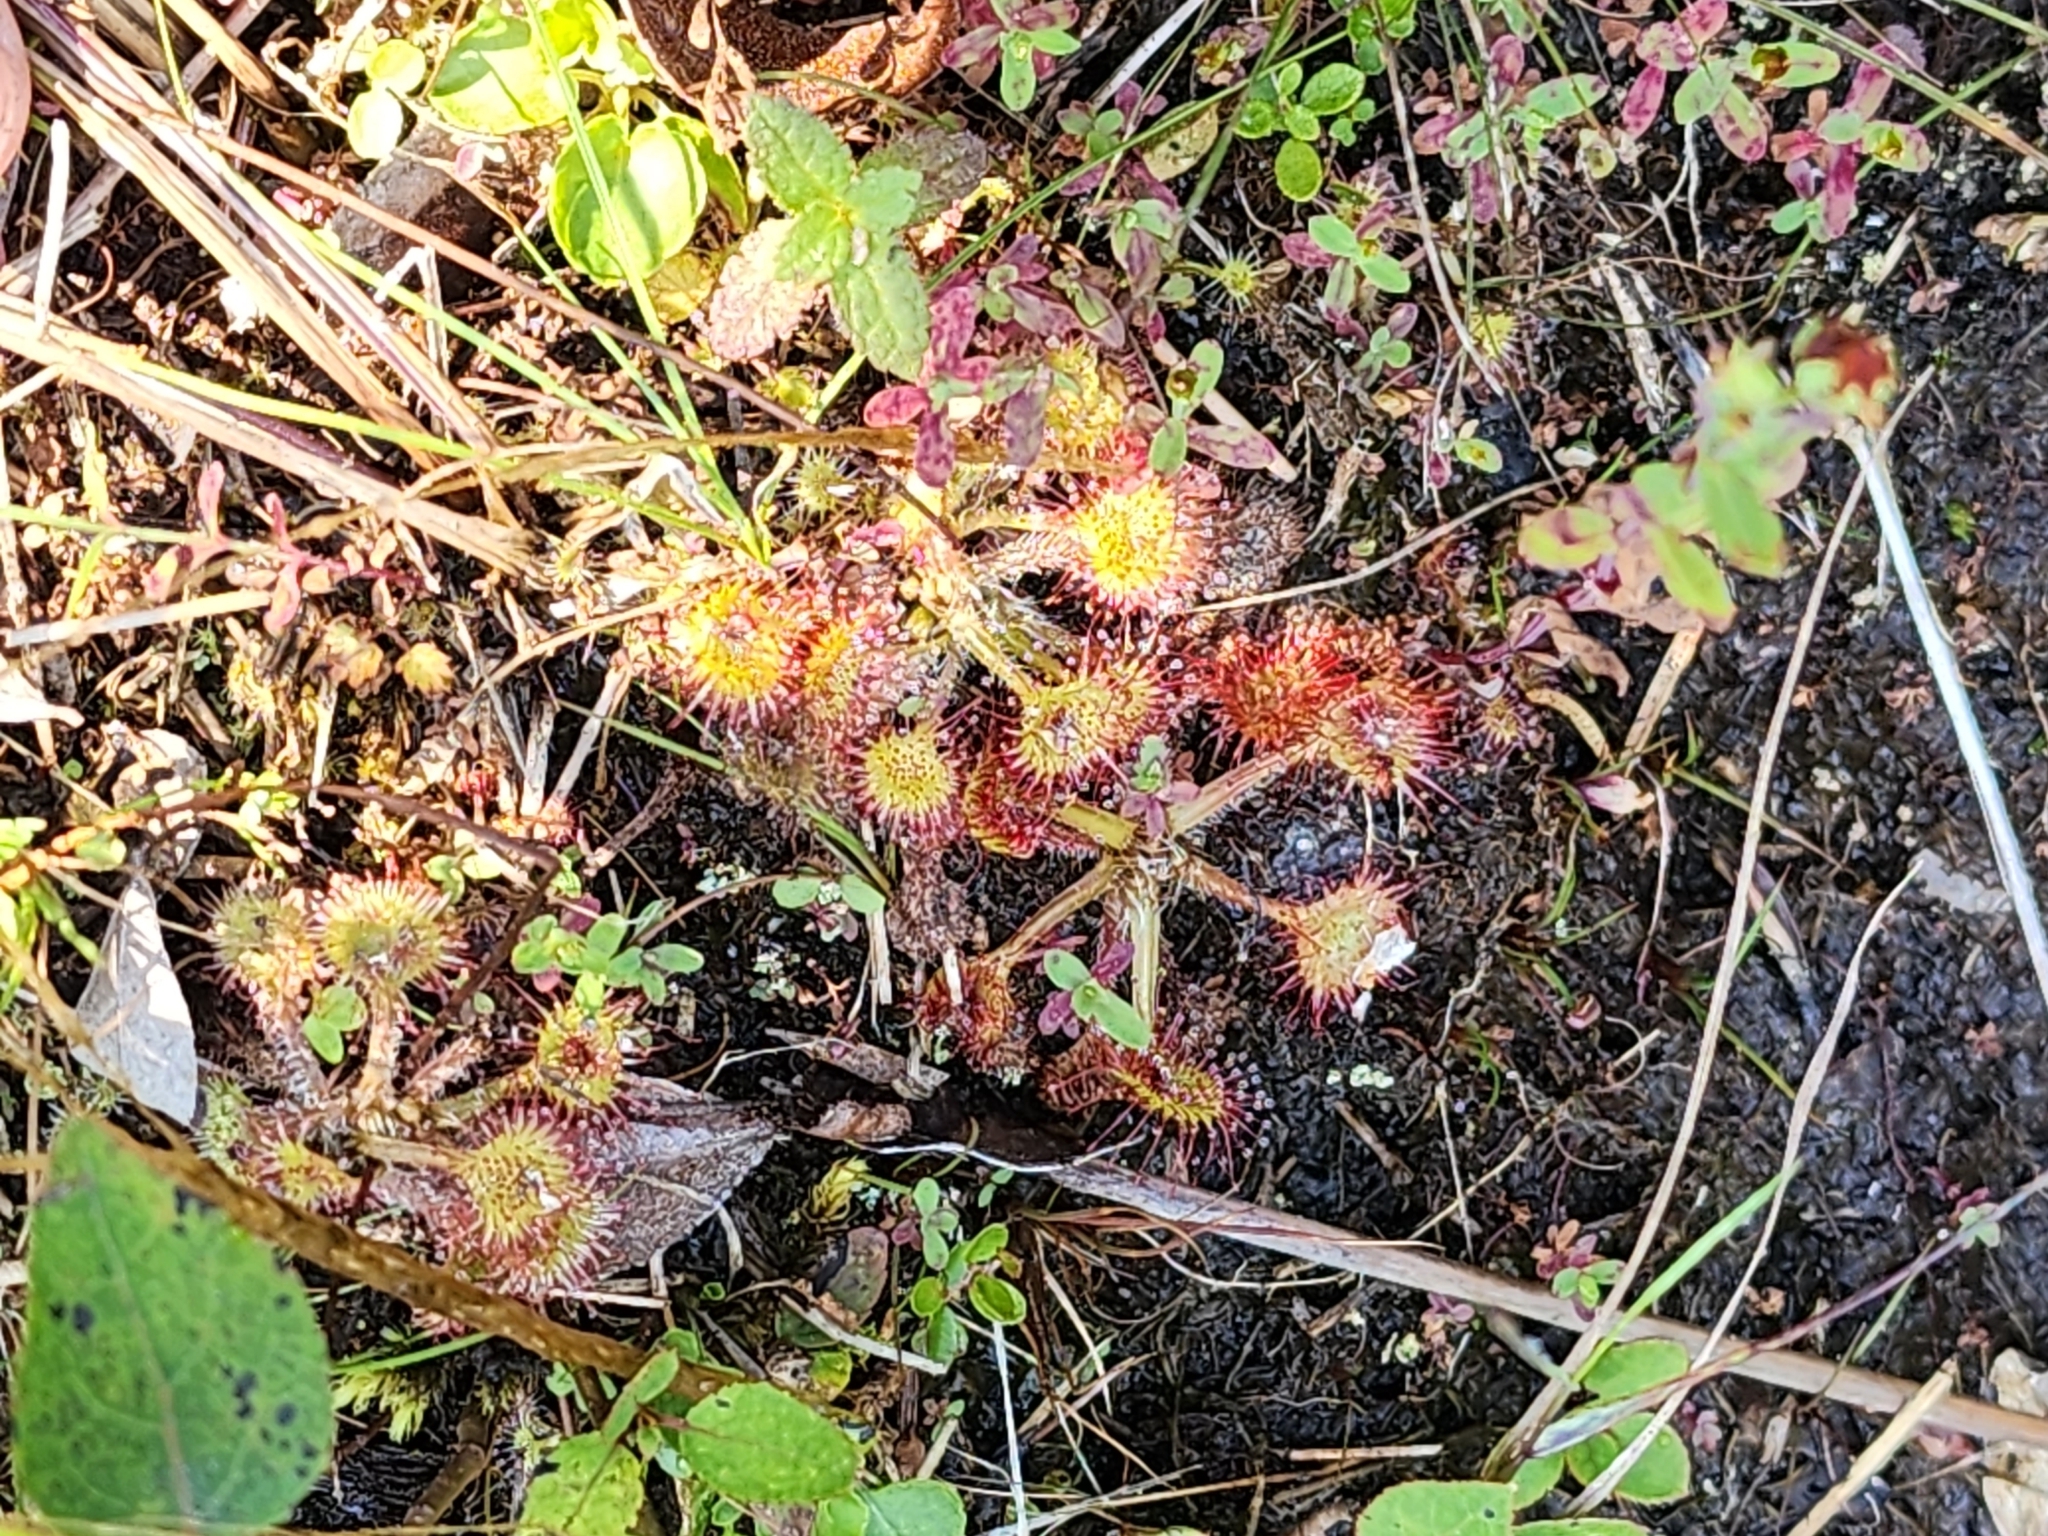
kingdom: Plantae
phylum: Tracheophyta
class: Magnoliopsida
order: Caryophyllales
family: Droseraceae
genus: Drosera
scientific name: Drosera rotundifolia
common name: Round-leaved sundew
